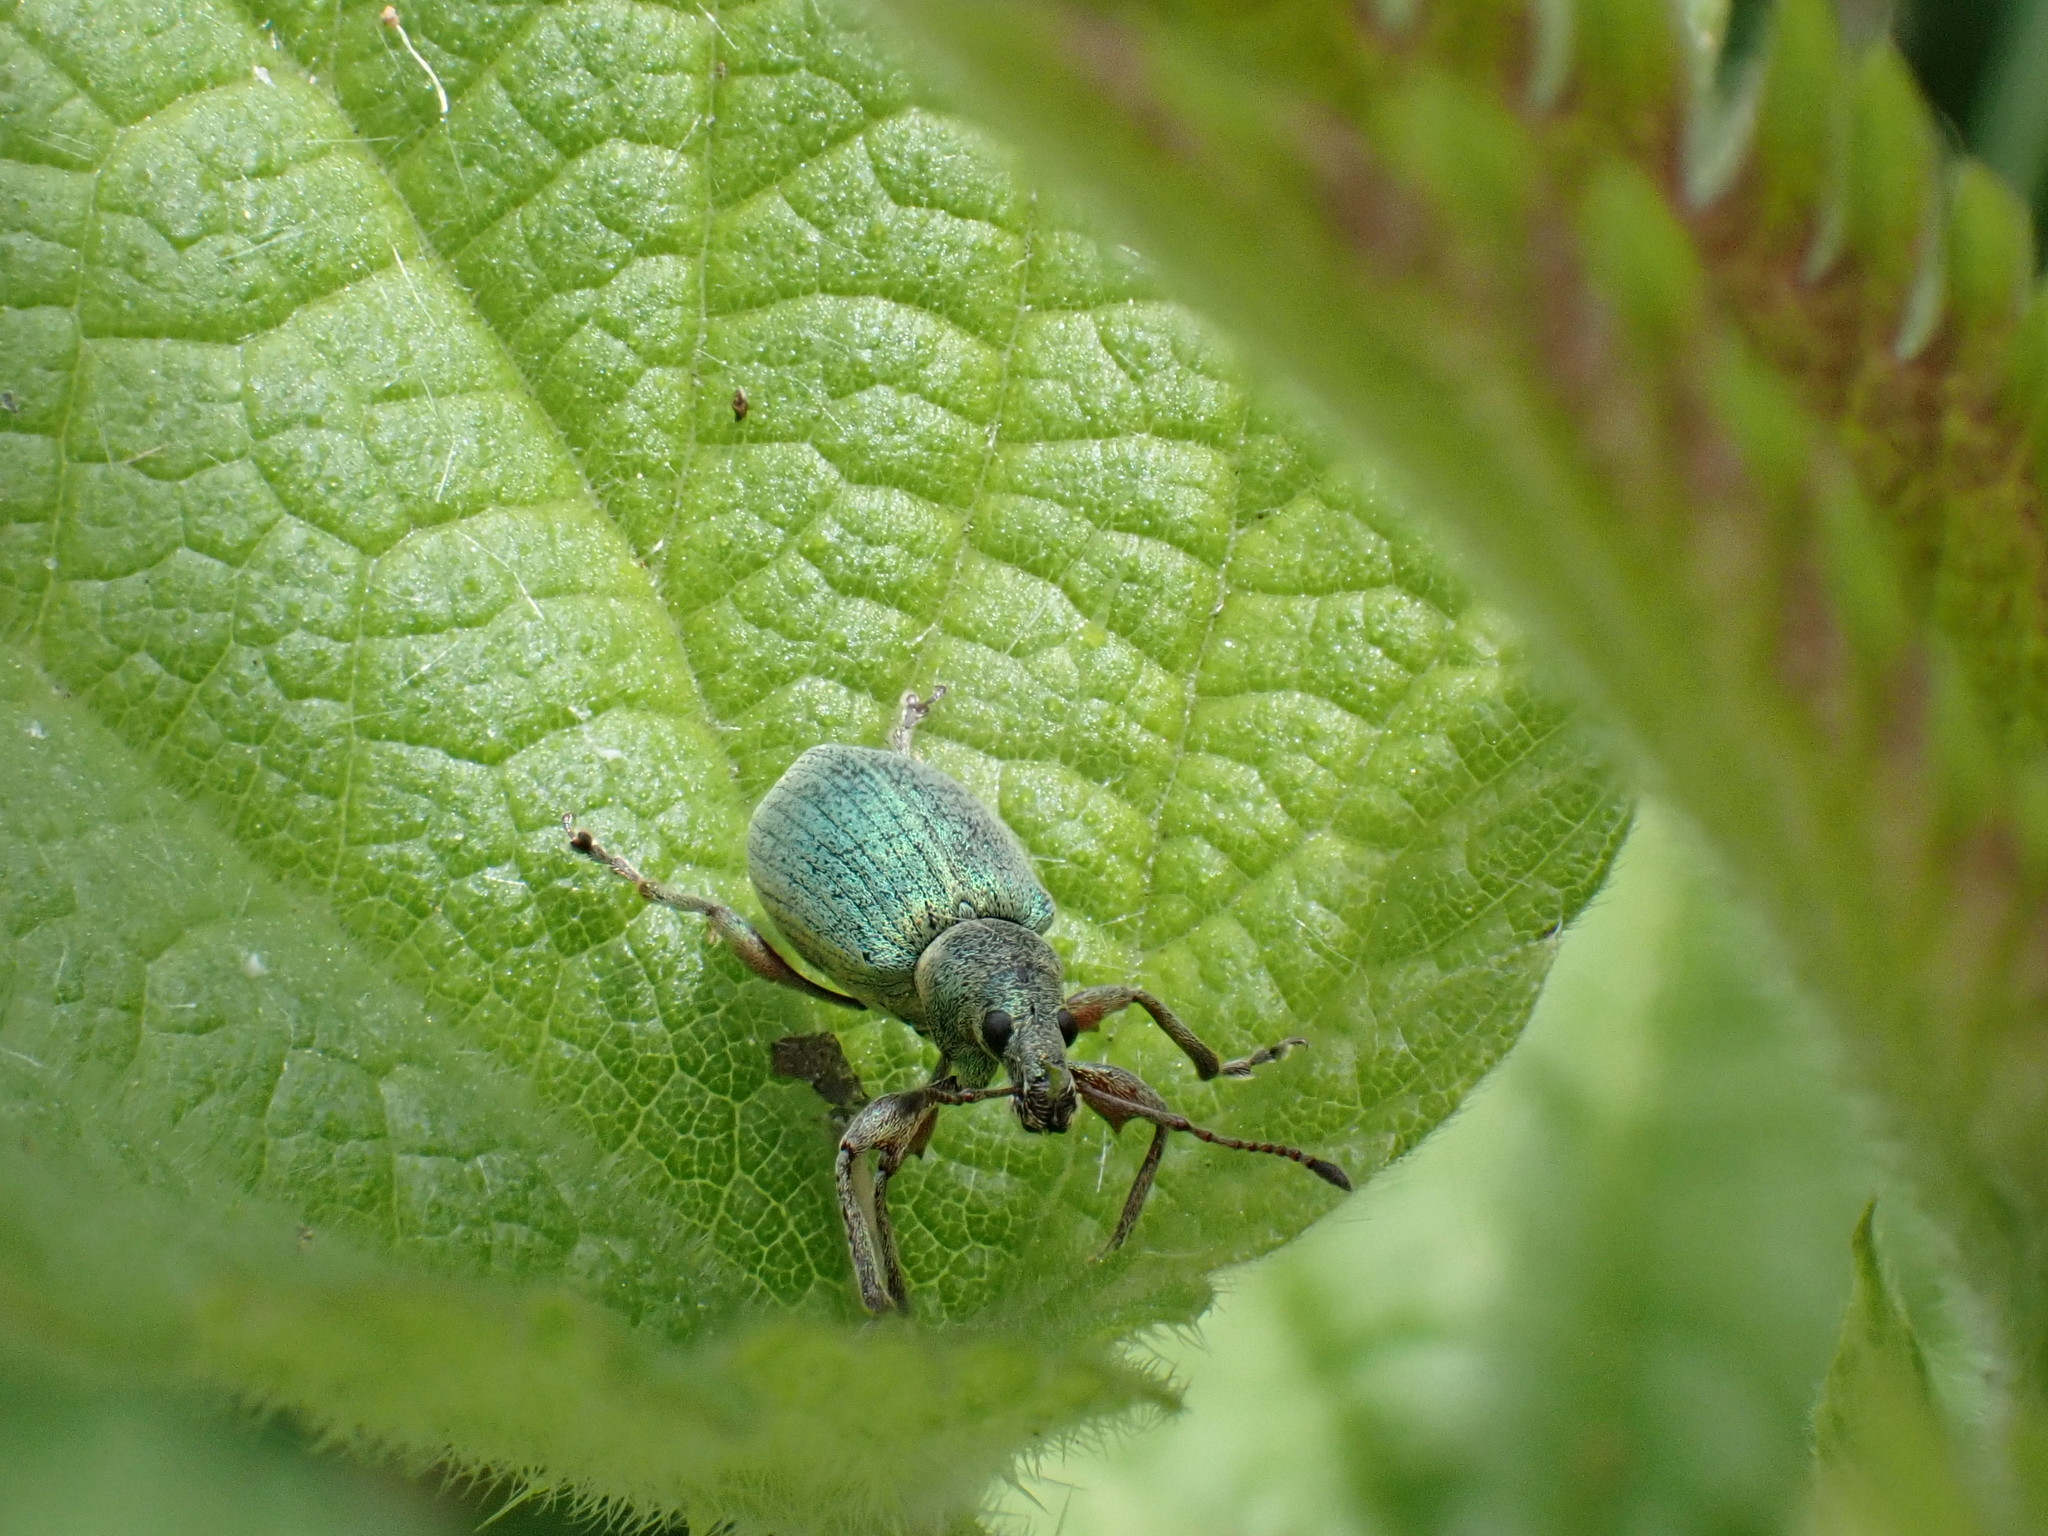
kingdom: Animalia
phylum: Arthropoda
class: Insecta
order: Coleoptera
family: Curculionidae
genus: Phyllobius
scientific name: Phyllobius pomaceus
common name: Green nettle weevil
